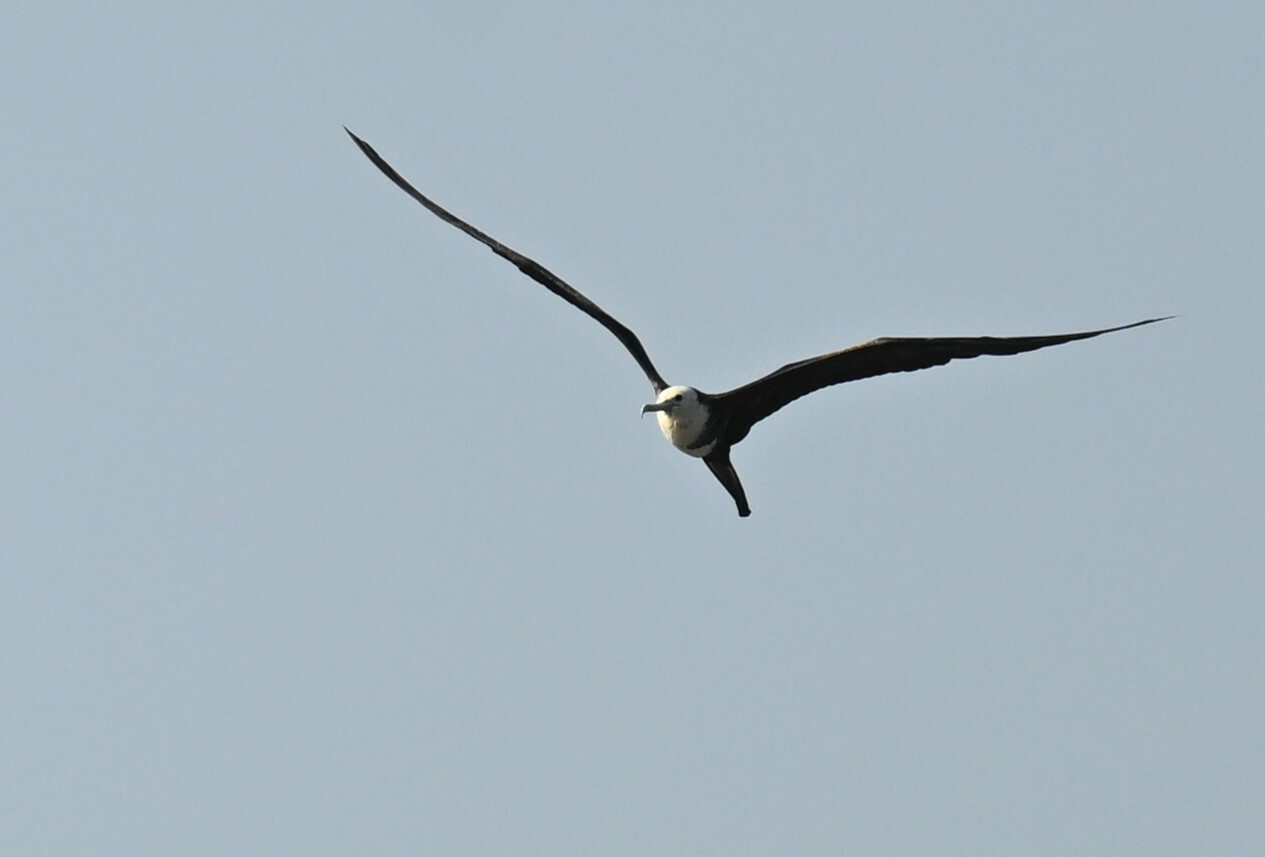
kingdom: Animalia
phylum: Chordata
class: Aves
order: Suliformes
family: Fregatidae
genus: Fregata
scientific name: Fregata magnificens
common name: Magnificent frigatebird
